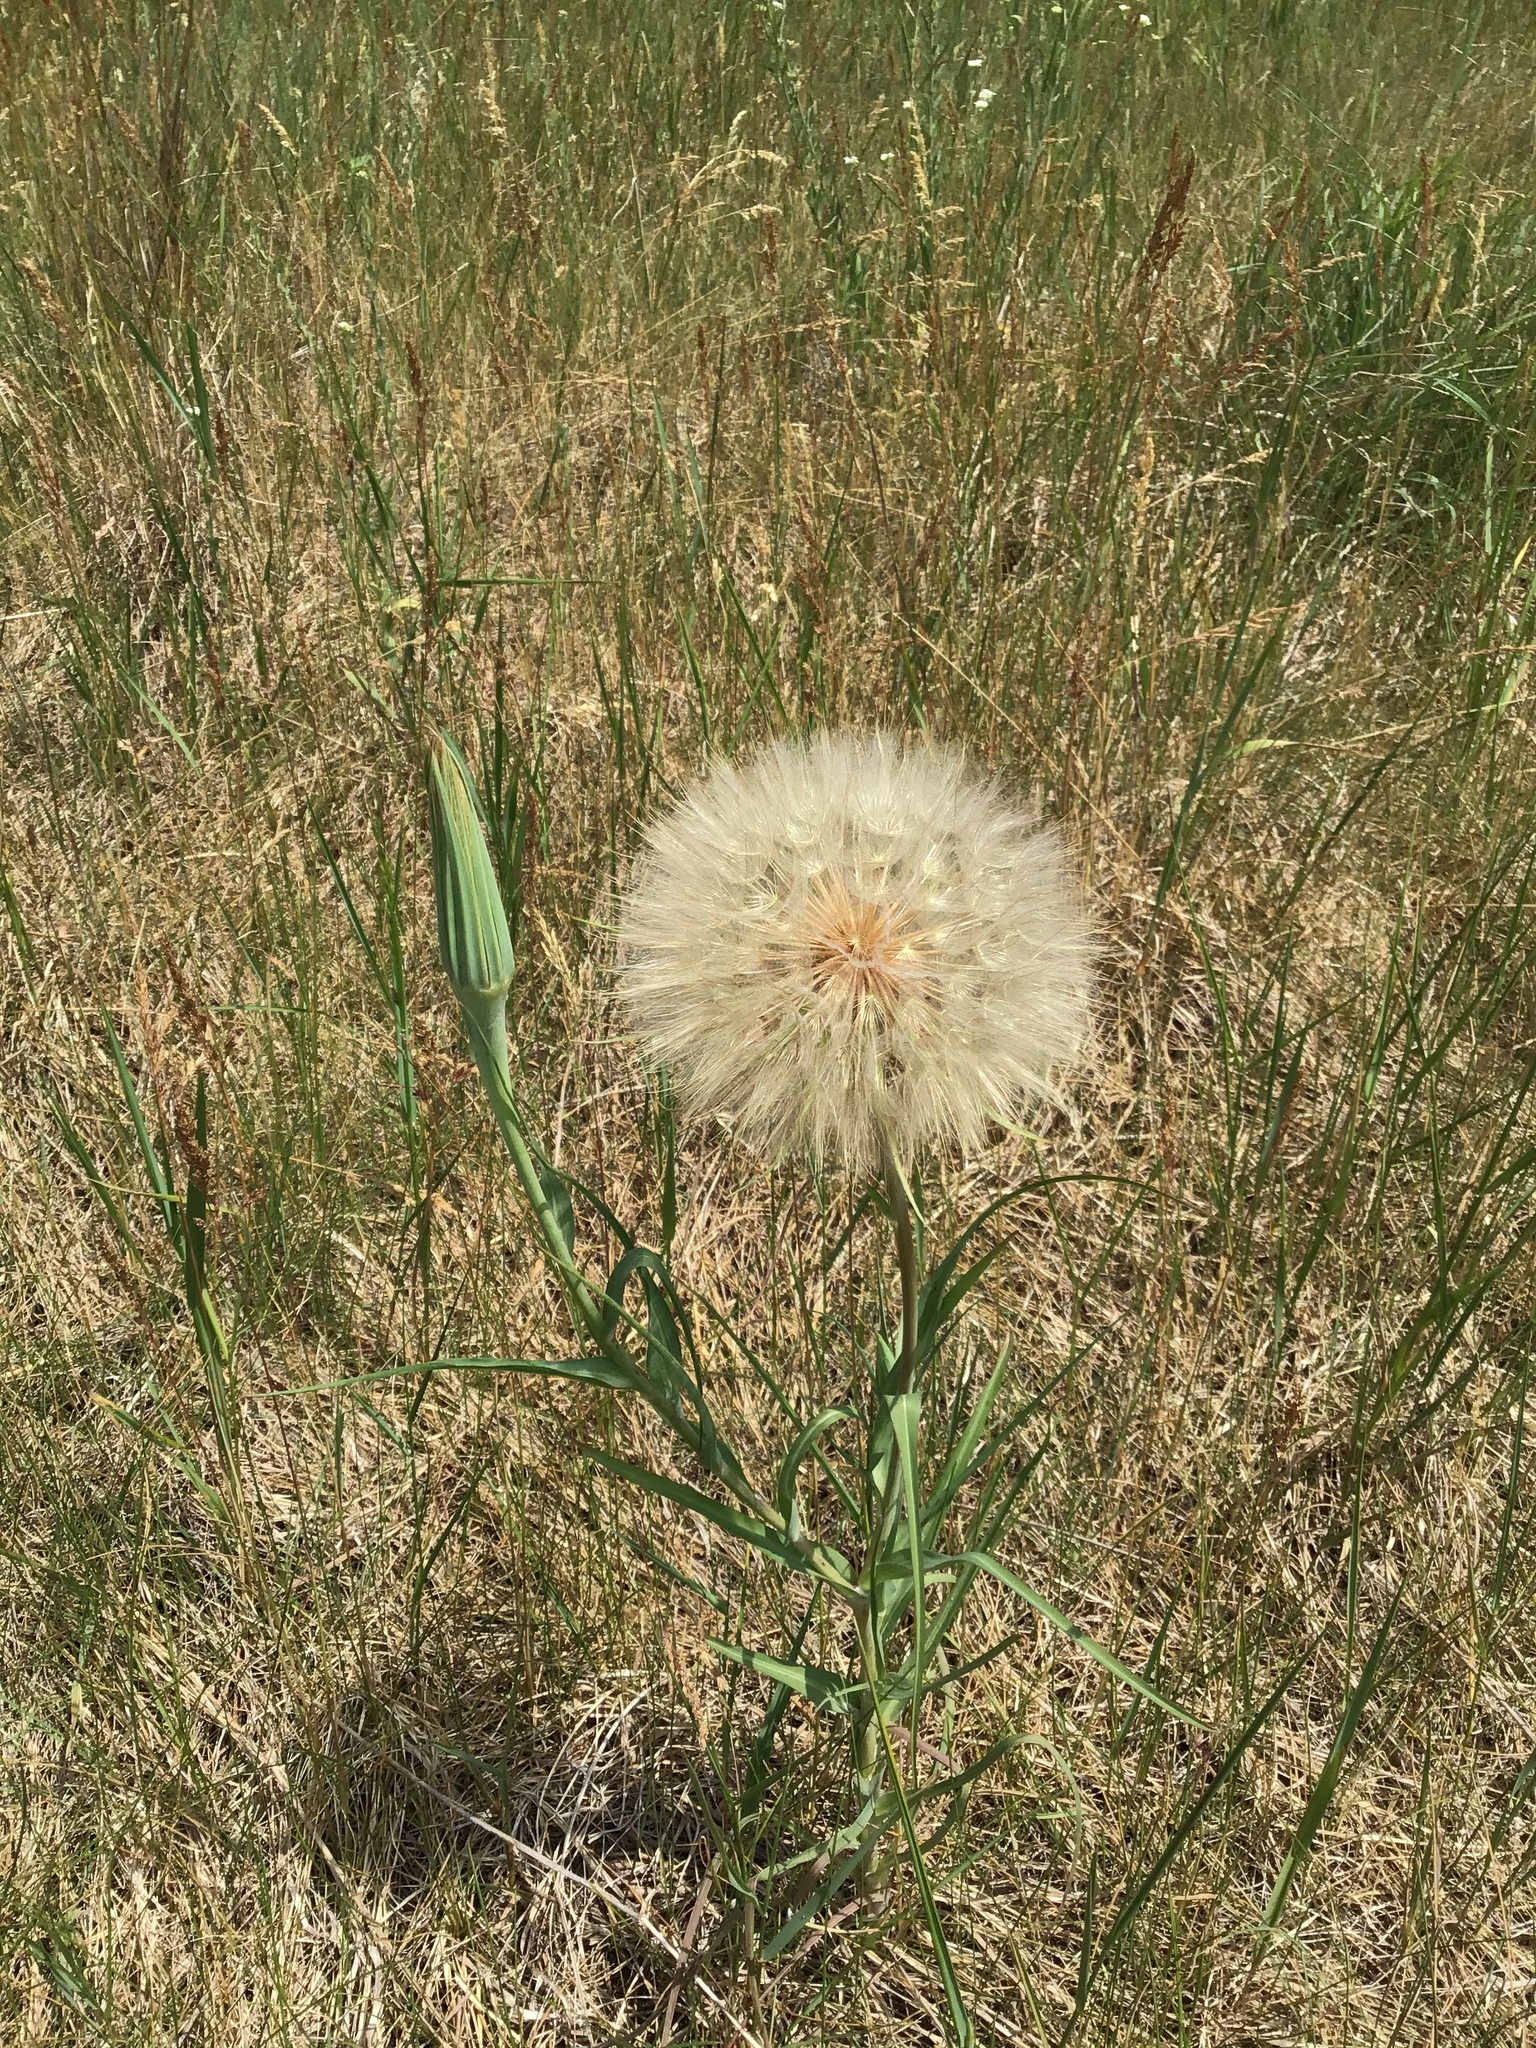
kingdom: Plantae
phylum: Tracheophyta
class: Magnoliopsida
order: Asterales
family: Asteraceae
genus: Tragopogon
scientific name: Tragopogon dubius
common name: Yellow salsify
